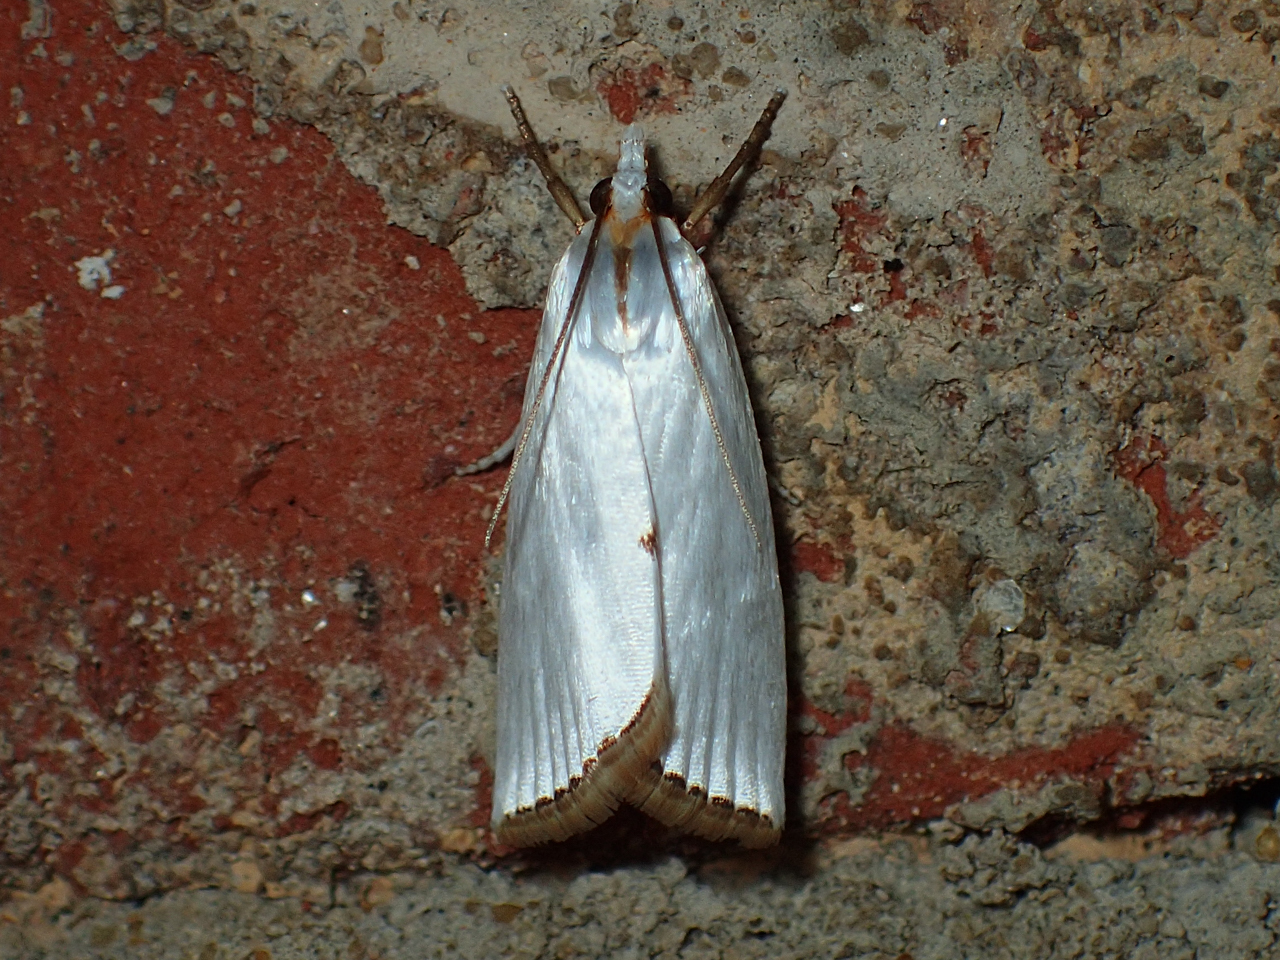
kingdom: Animalia
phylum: Arthropoda
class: Insecta
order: Lepidoptera
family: Crambidae
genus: Argyria
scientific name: Argyria nivalis
